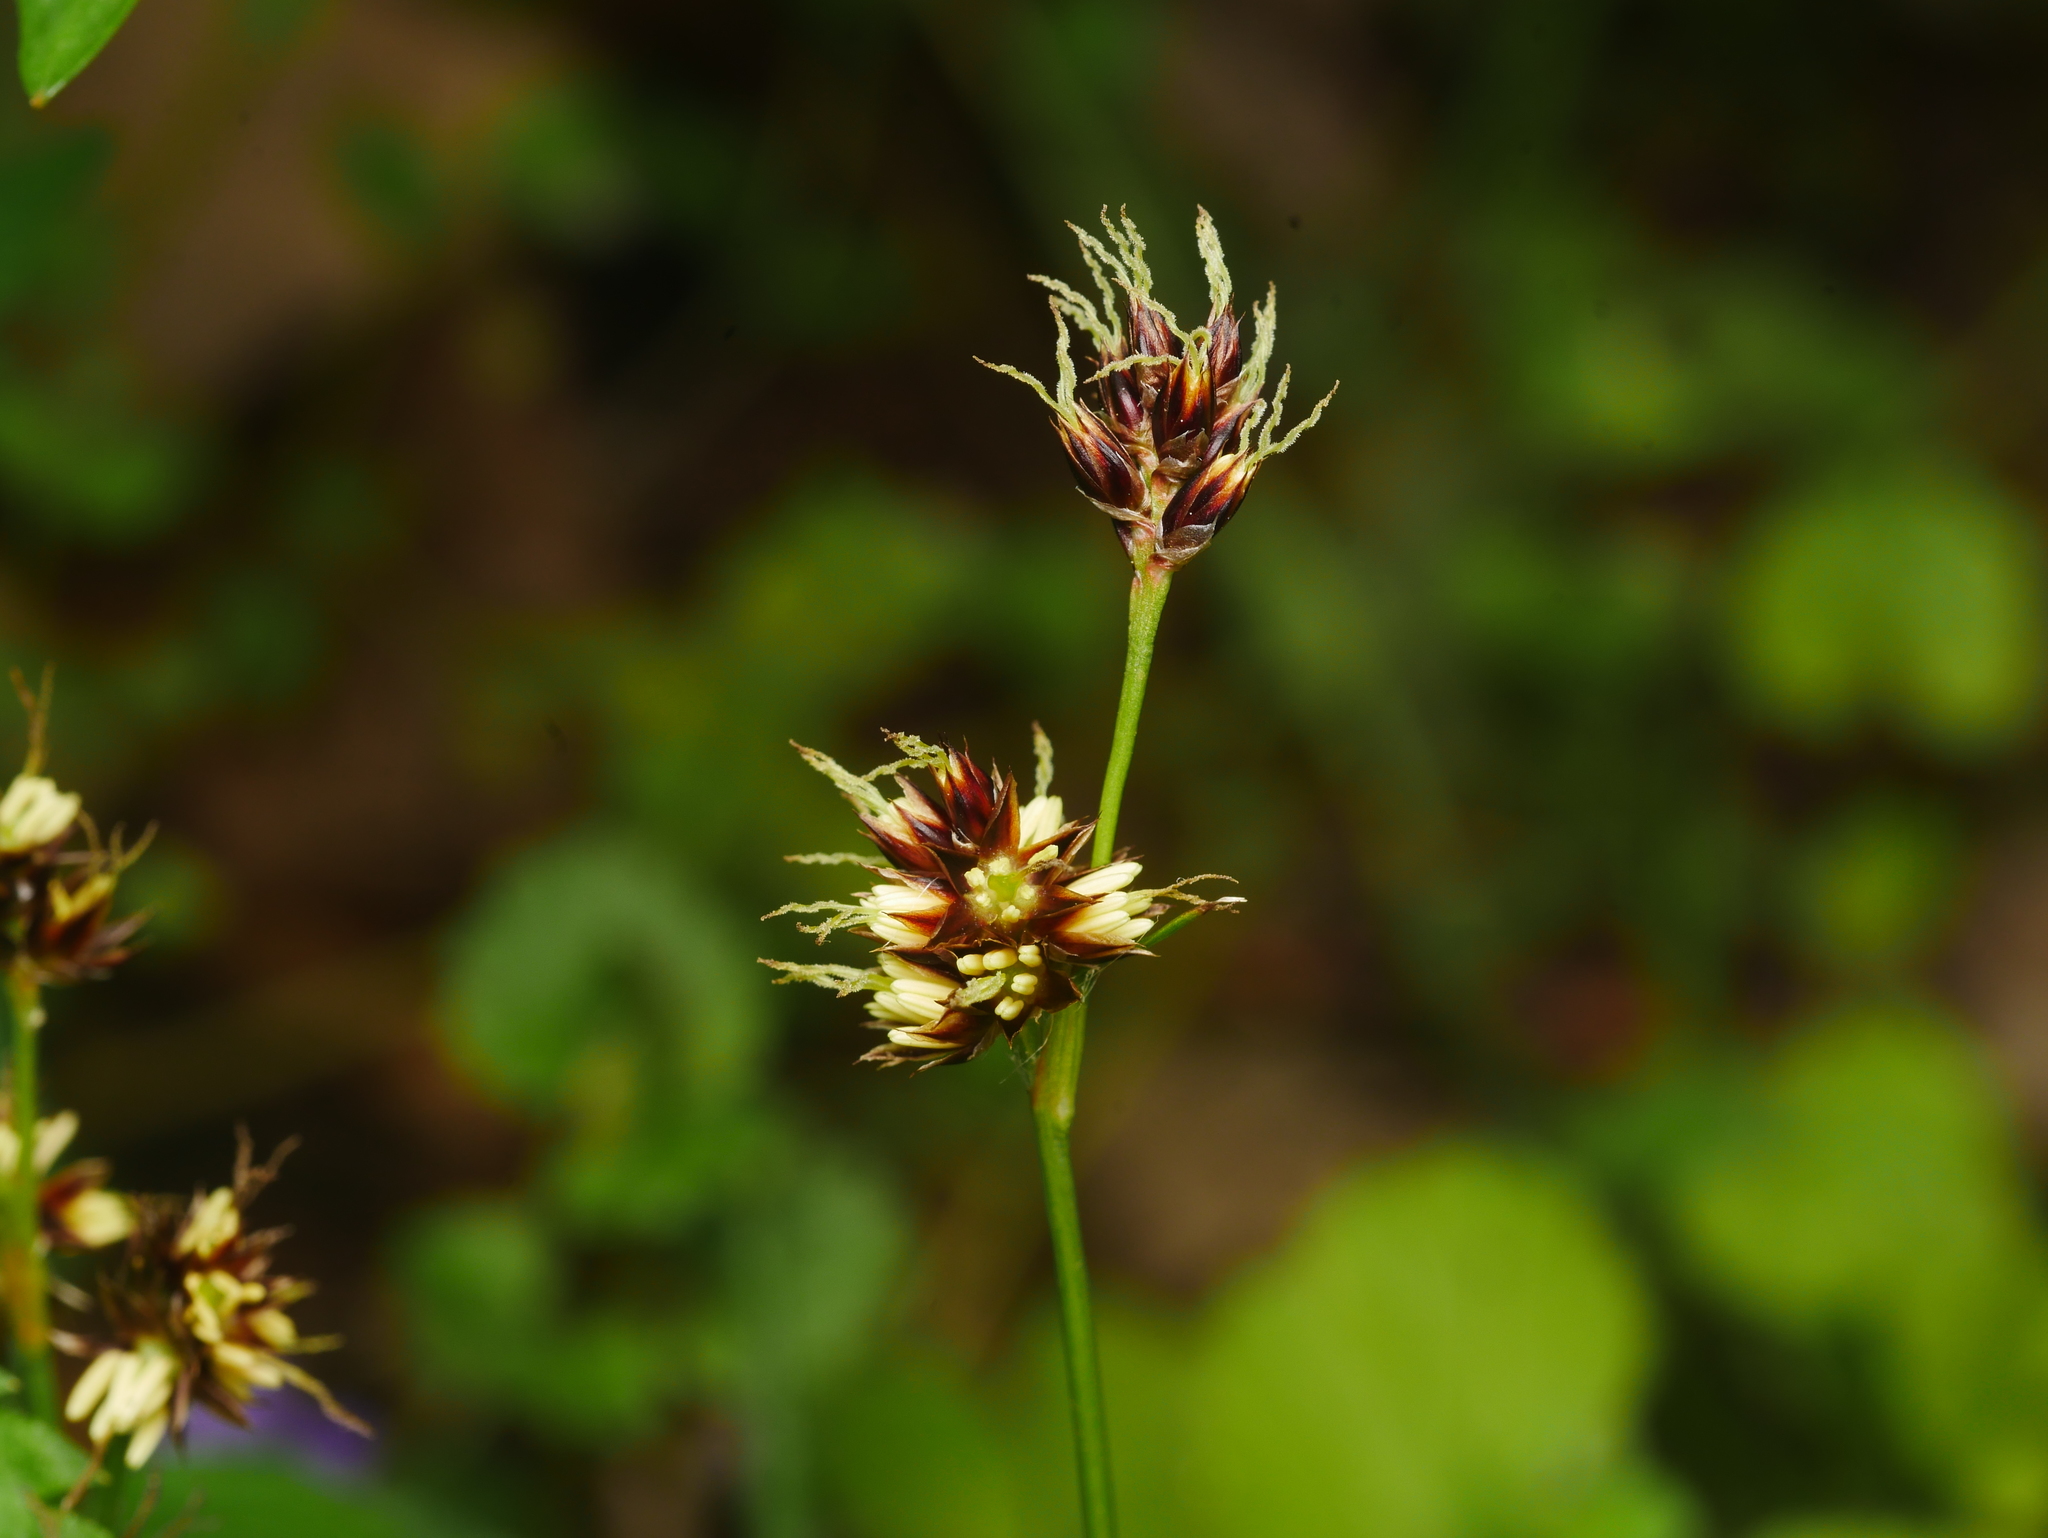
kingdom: Plantae
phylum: Tracheophyta
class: Liliopsida
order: Poales
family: Juncaceae
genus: Luzula
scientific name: Luzula campestris
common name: Field wood-rush
